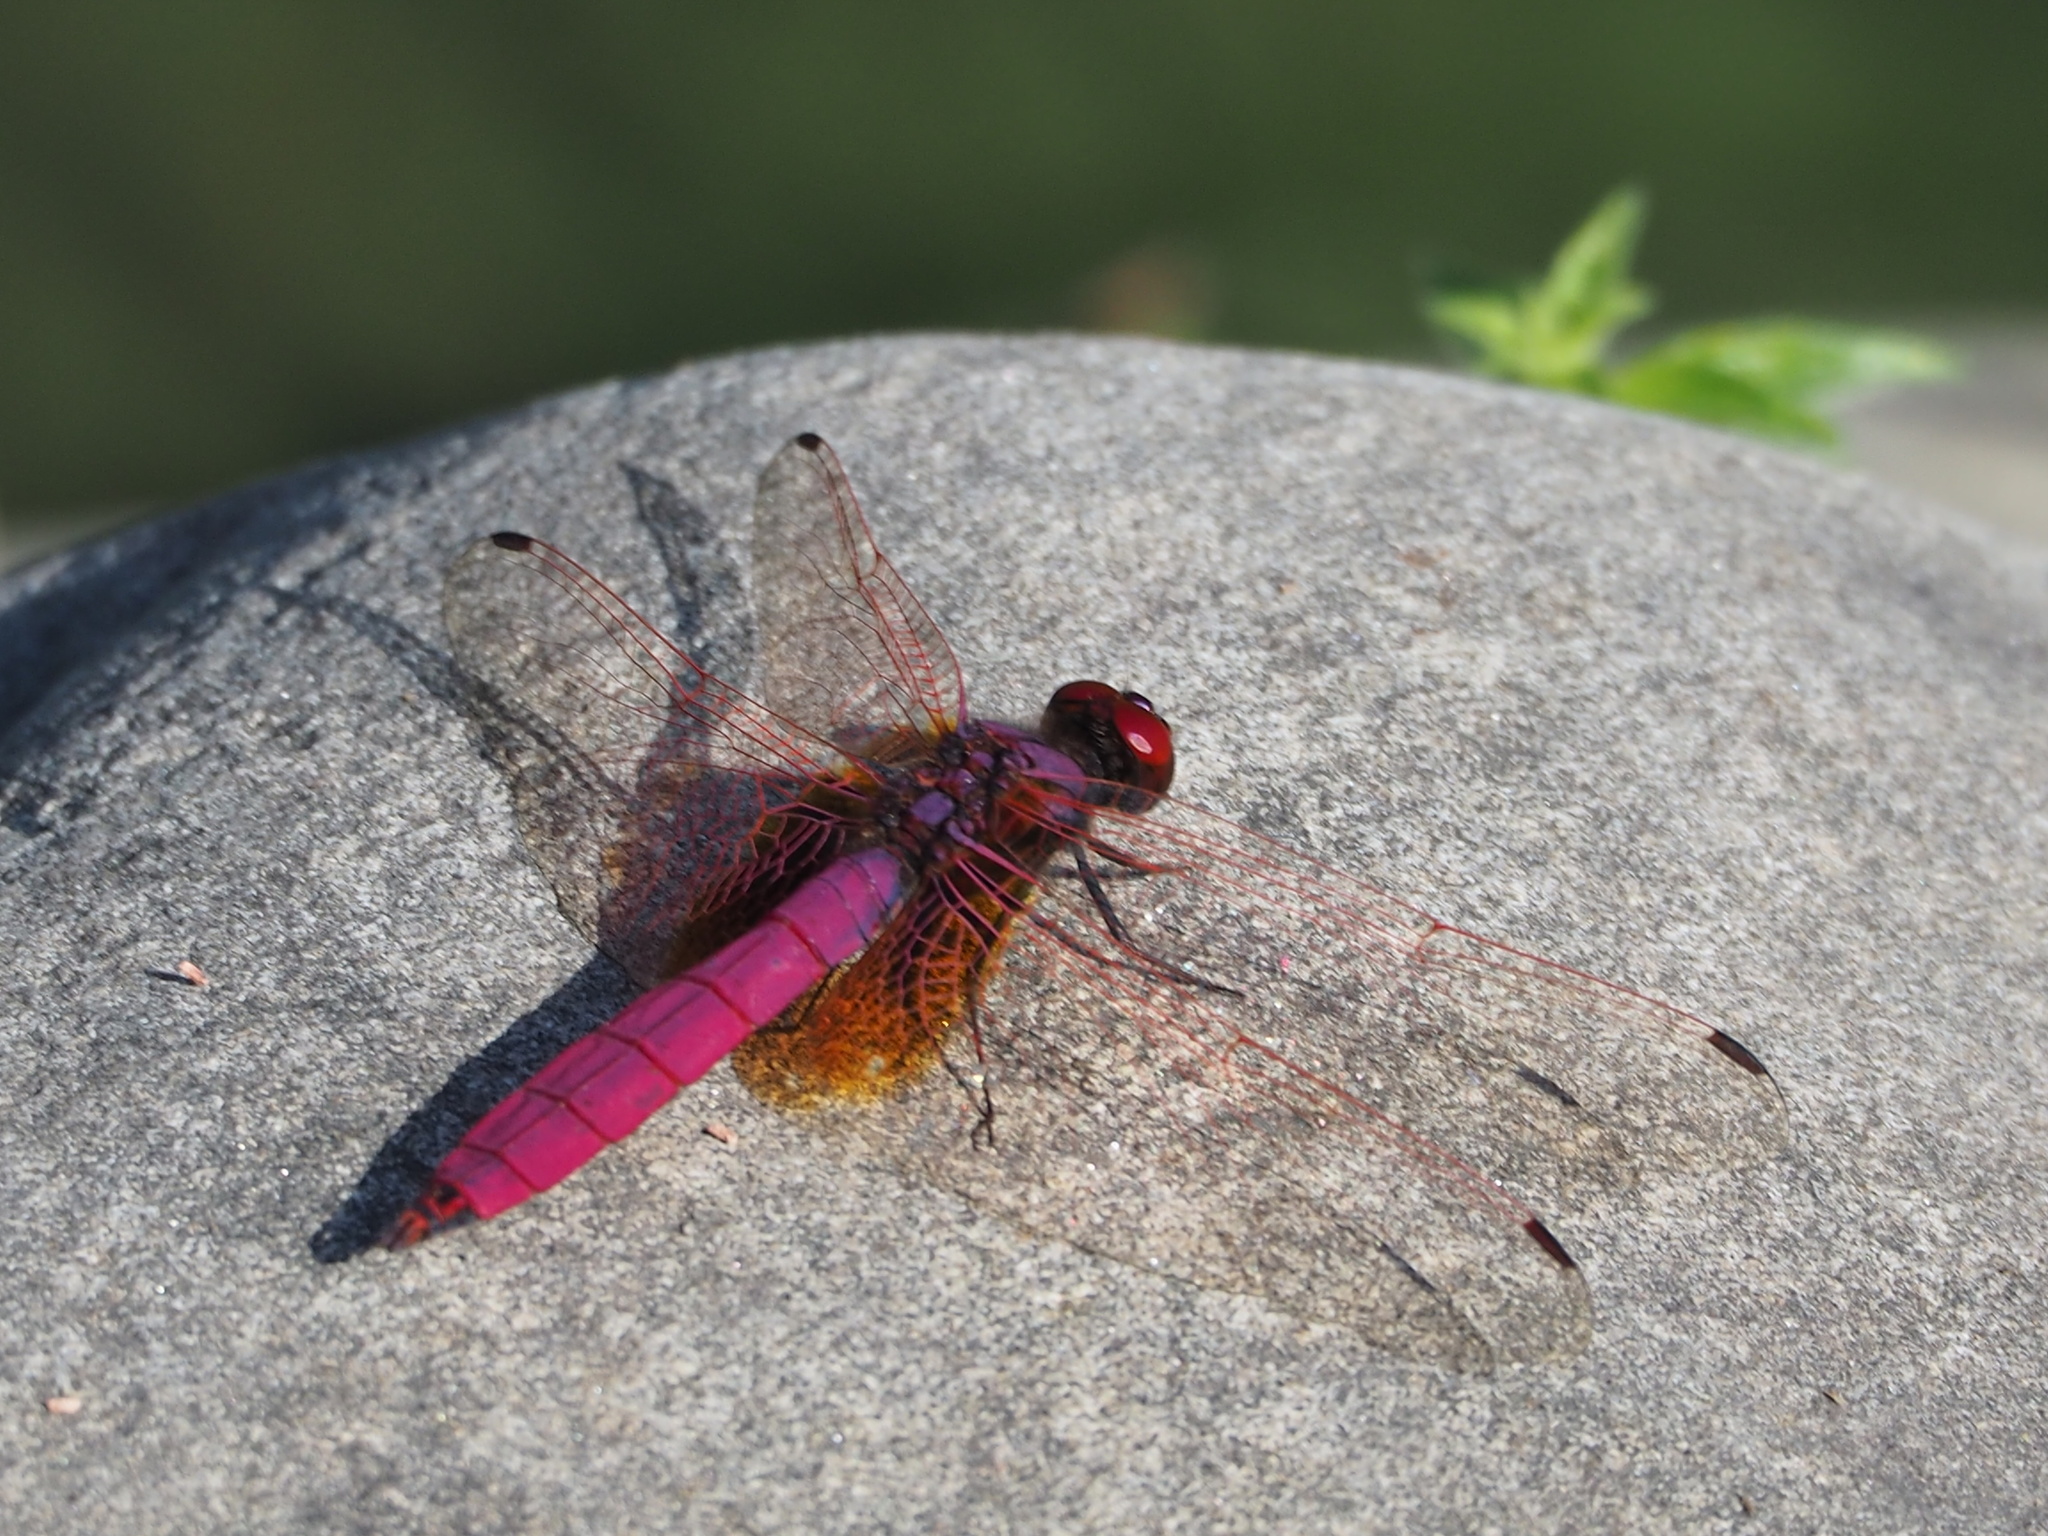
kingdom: Animalia
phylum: Arthropoda
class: Insecta
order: Odonata
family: Libellulidae
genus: Trithemis
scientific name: Trithemis aurora
